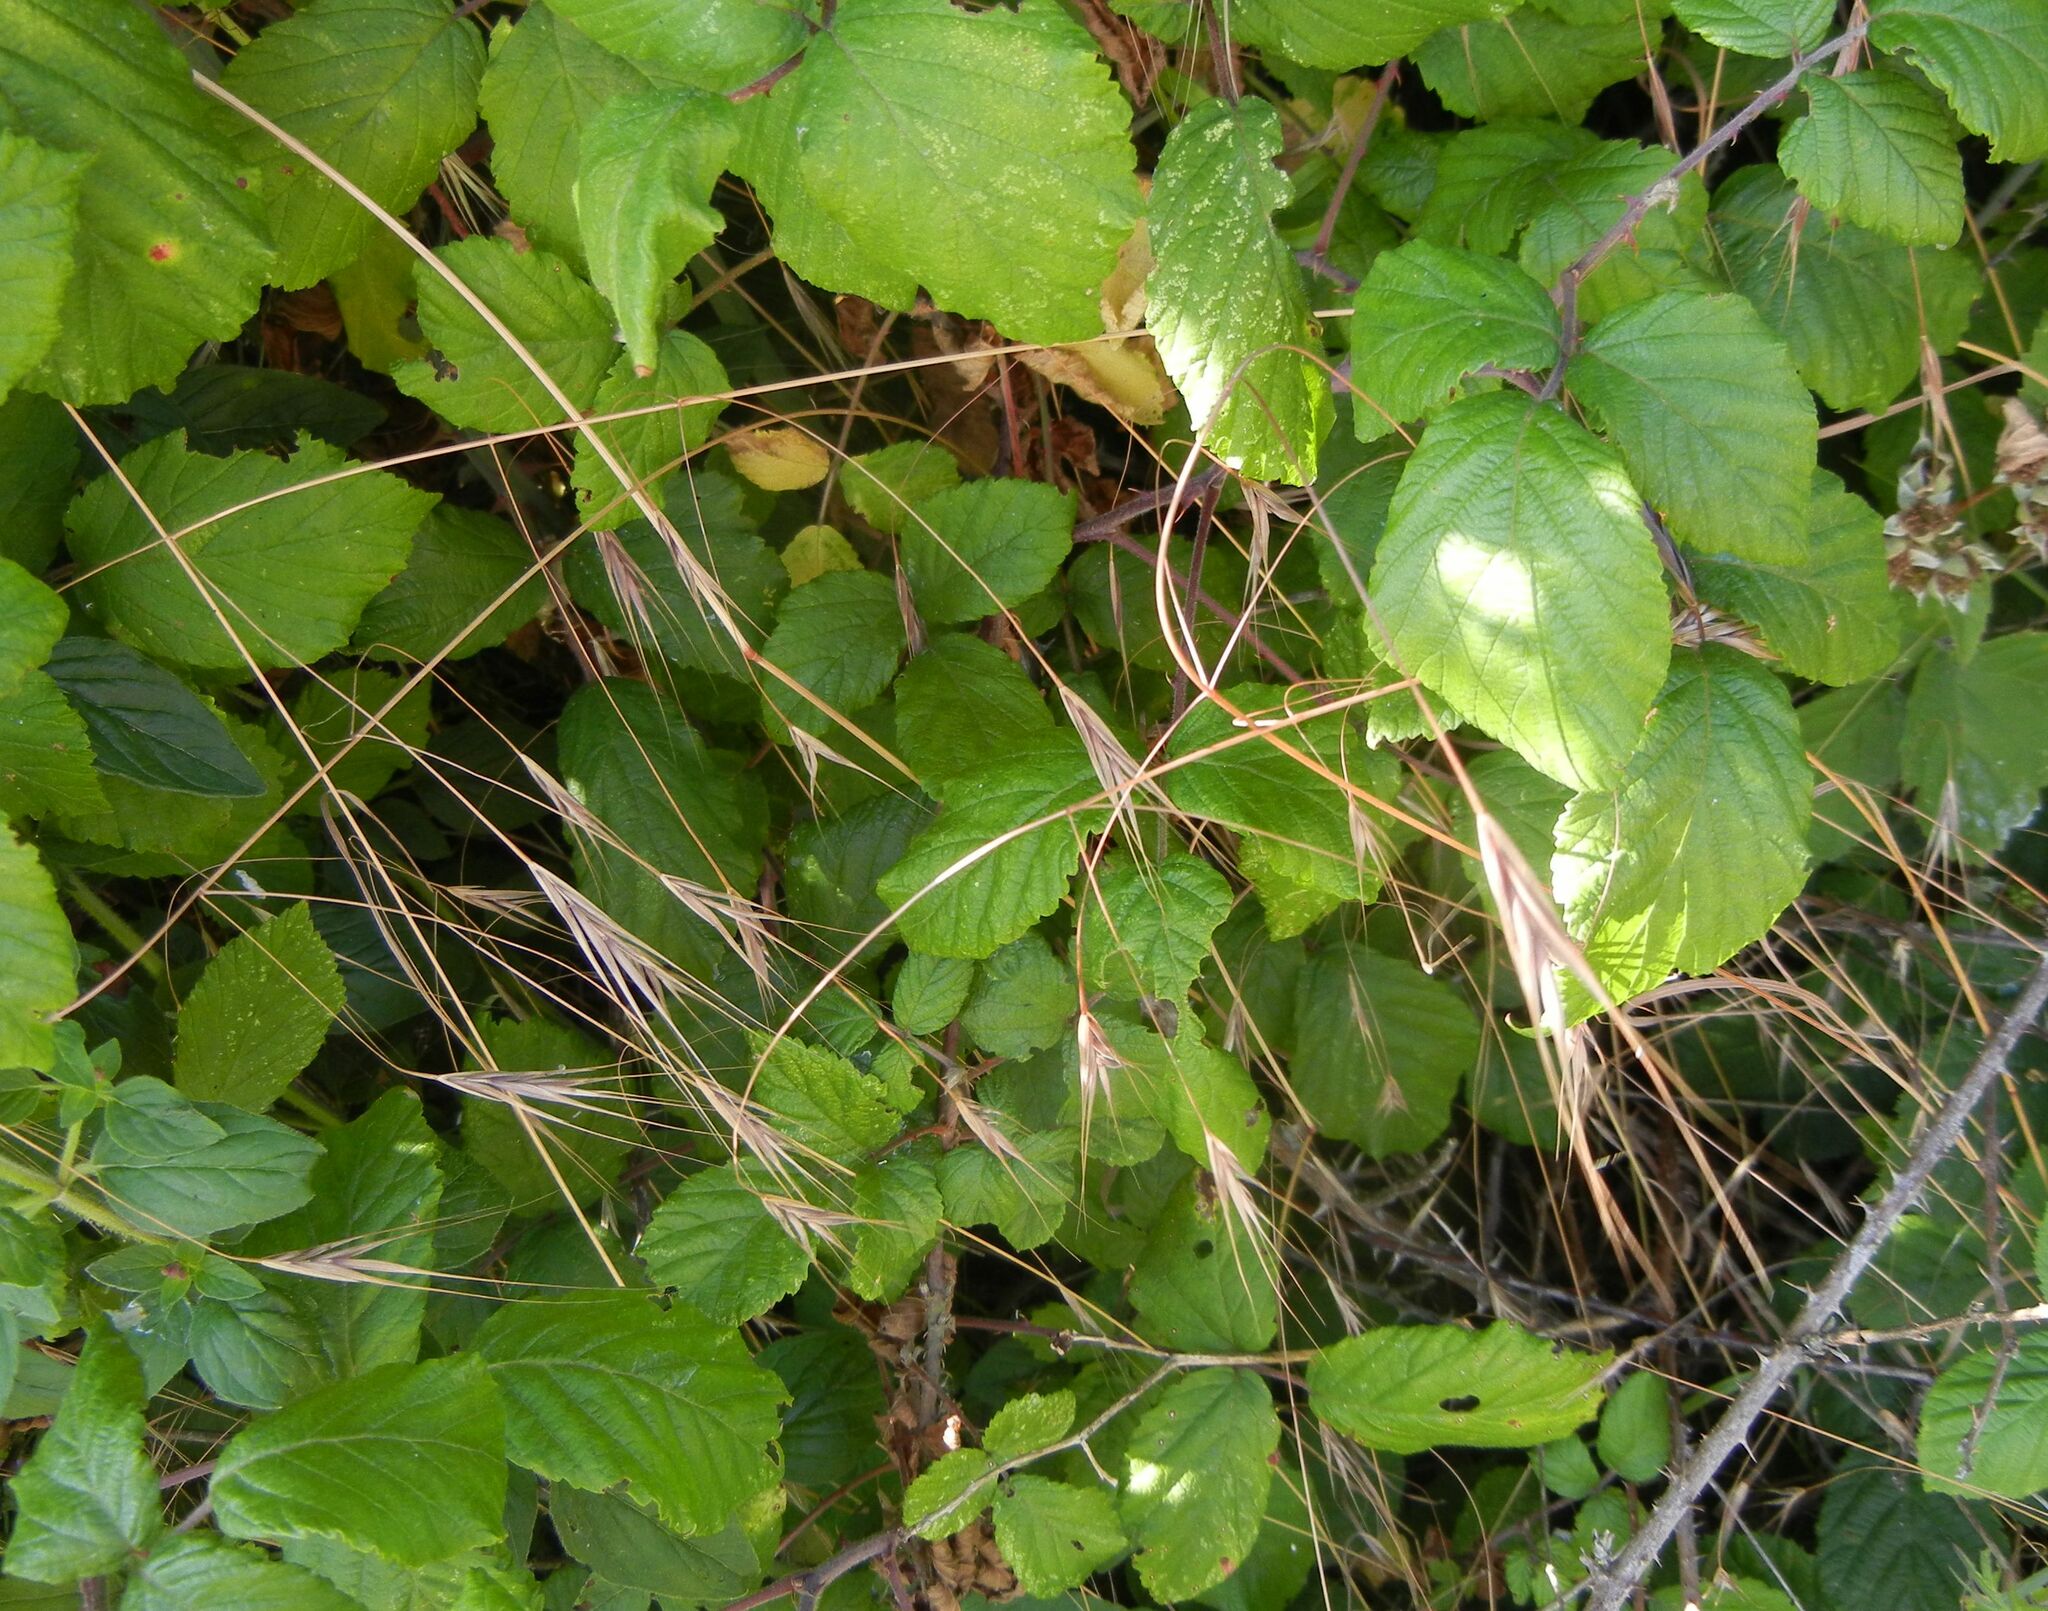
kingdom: Plantae
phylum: Tracheophyta
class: Liliopsida
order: Poales
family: Poaceae
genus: Bromus
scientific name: Bromus sterilis
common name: Poverty brome
